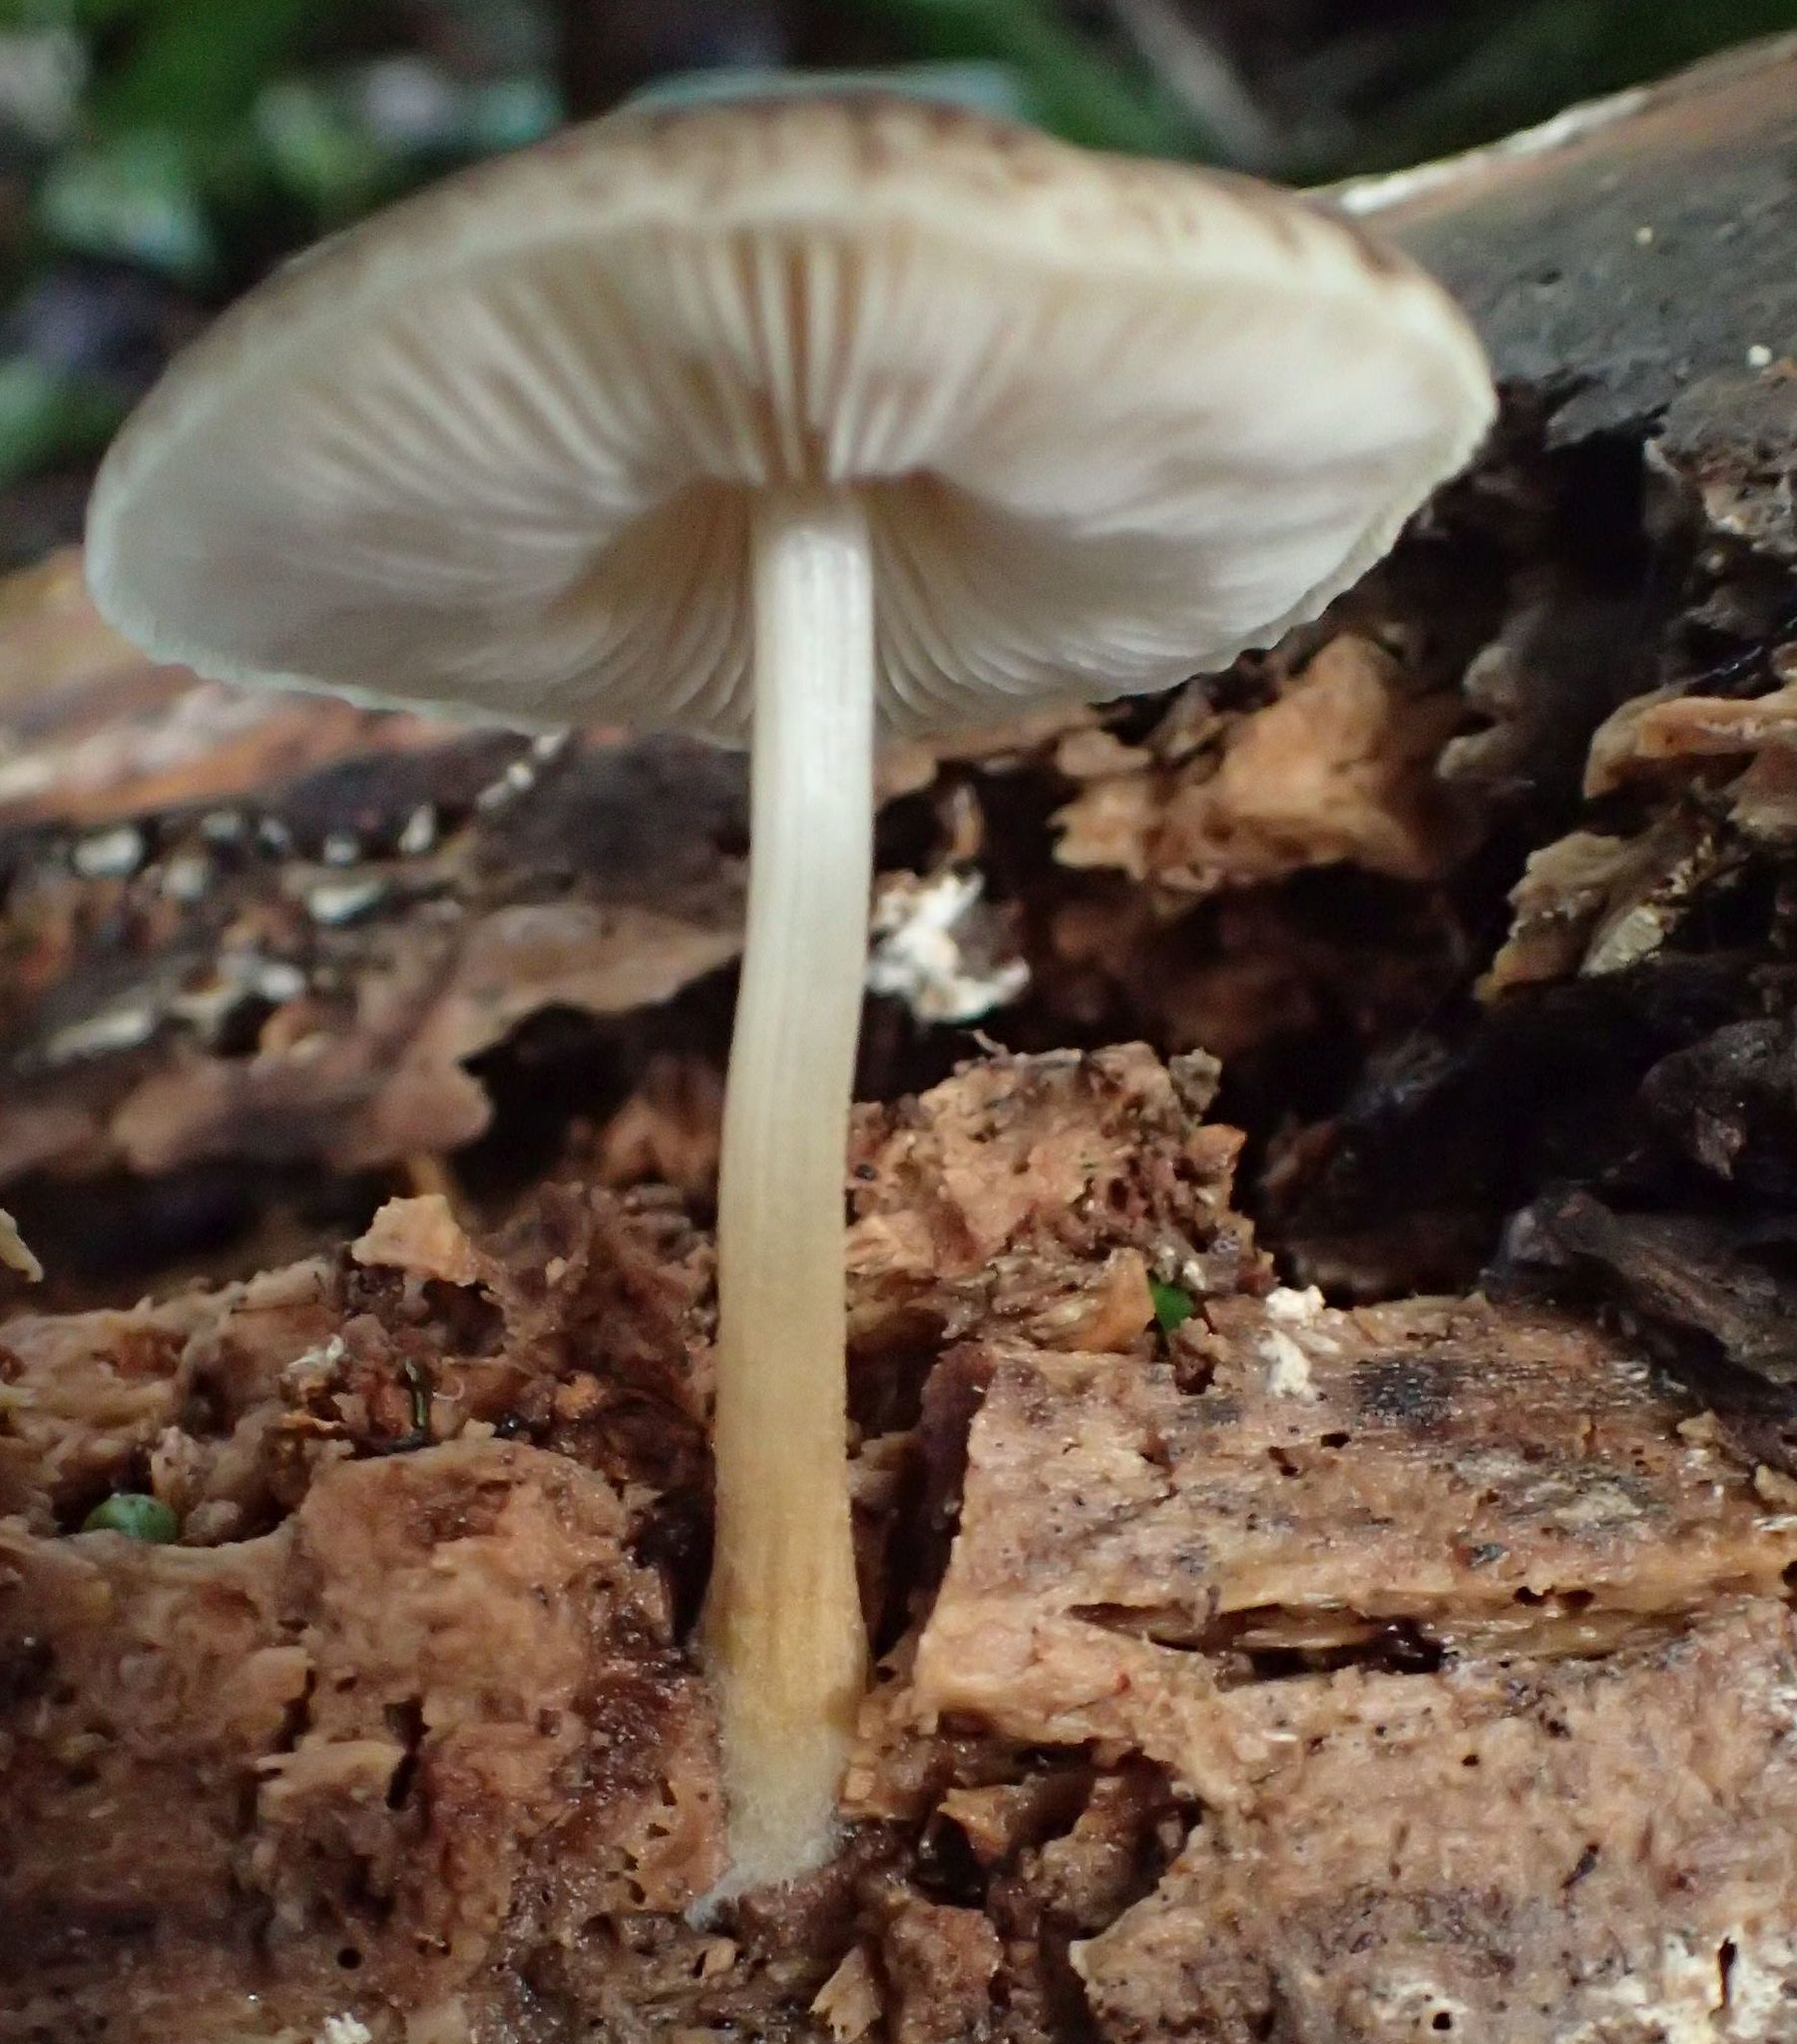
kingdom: Fungi
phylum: Basidiomycota
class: Agaricomycetes
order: Agaricales
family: Pluteaceae
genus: Pluteus
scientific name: Pluteus readiarum
